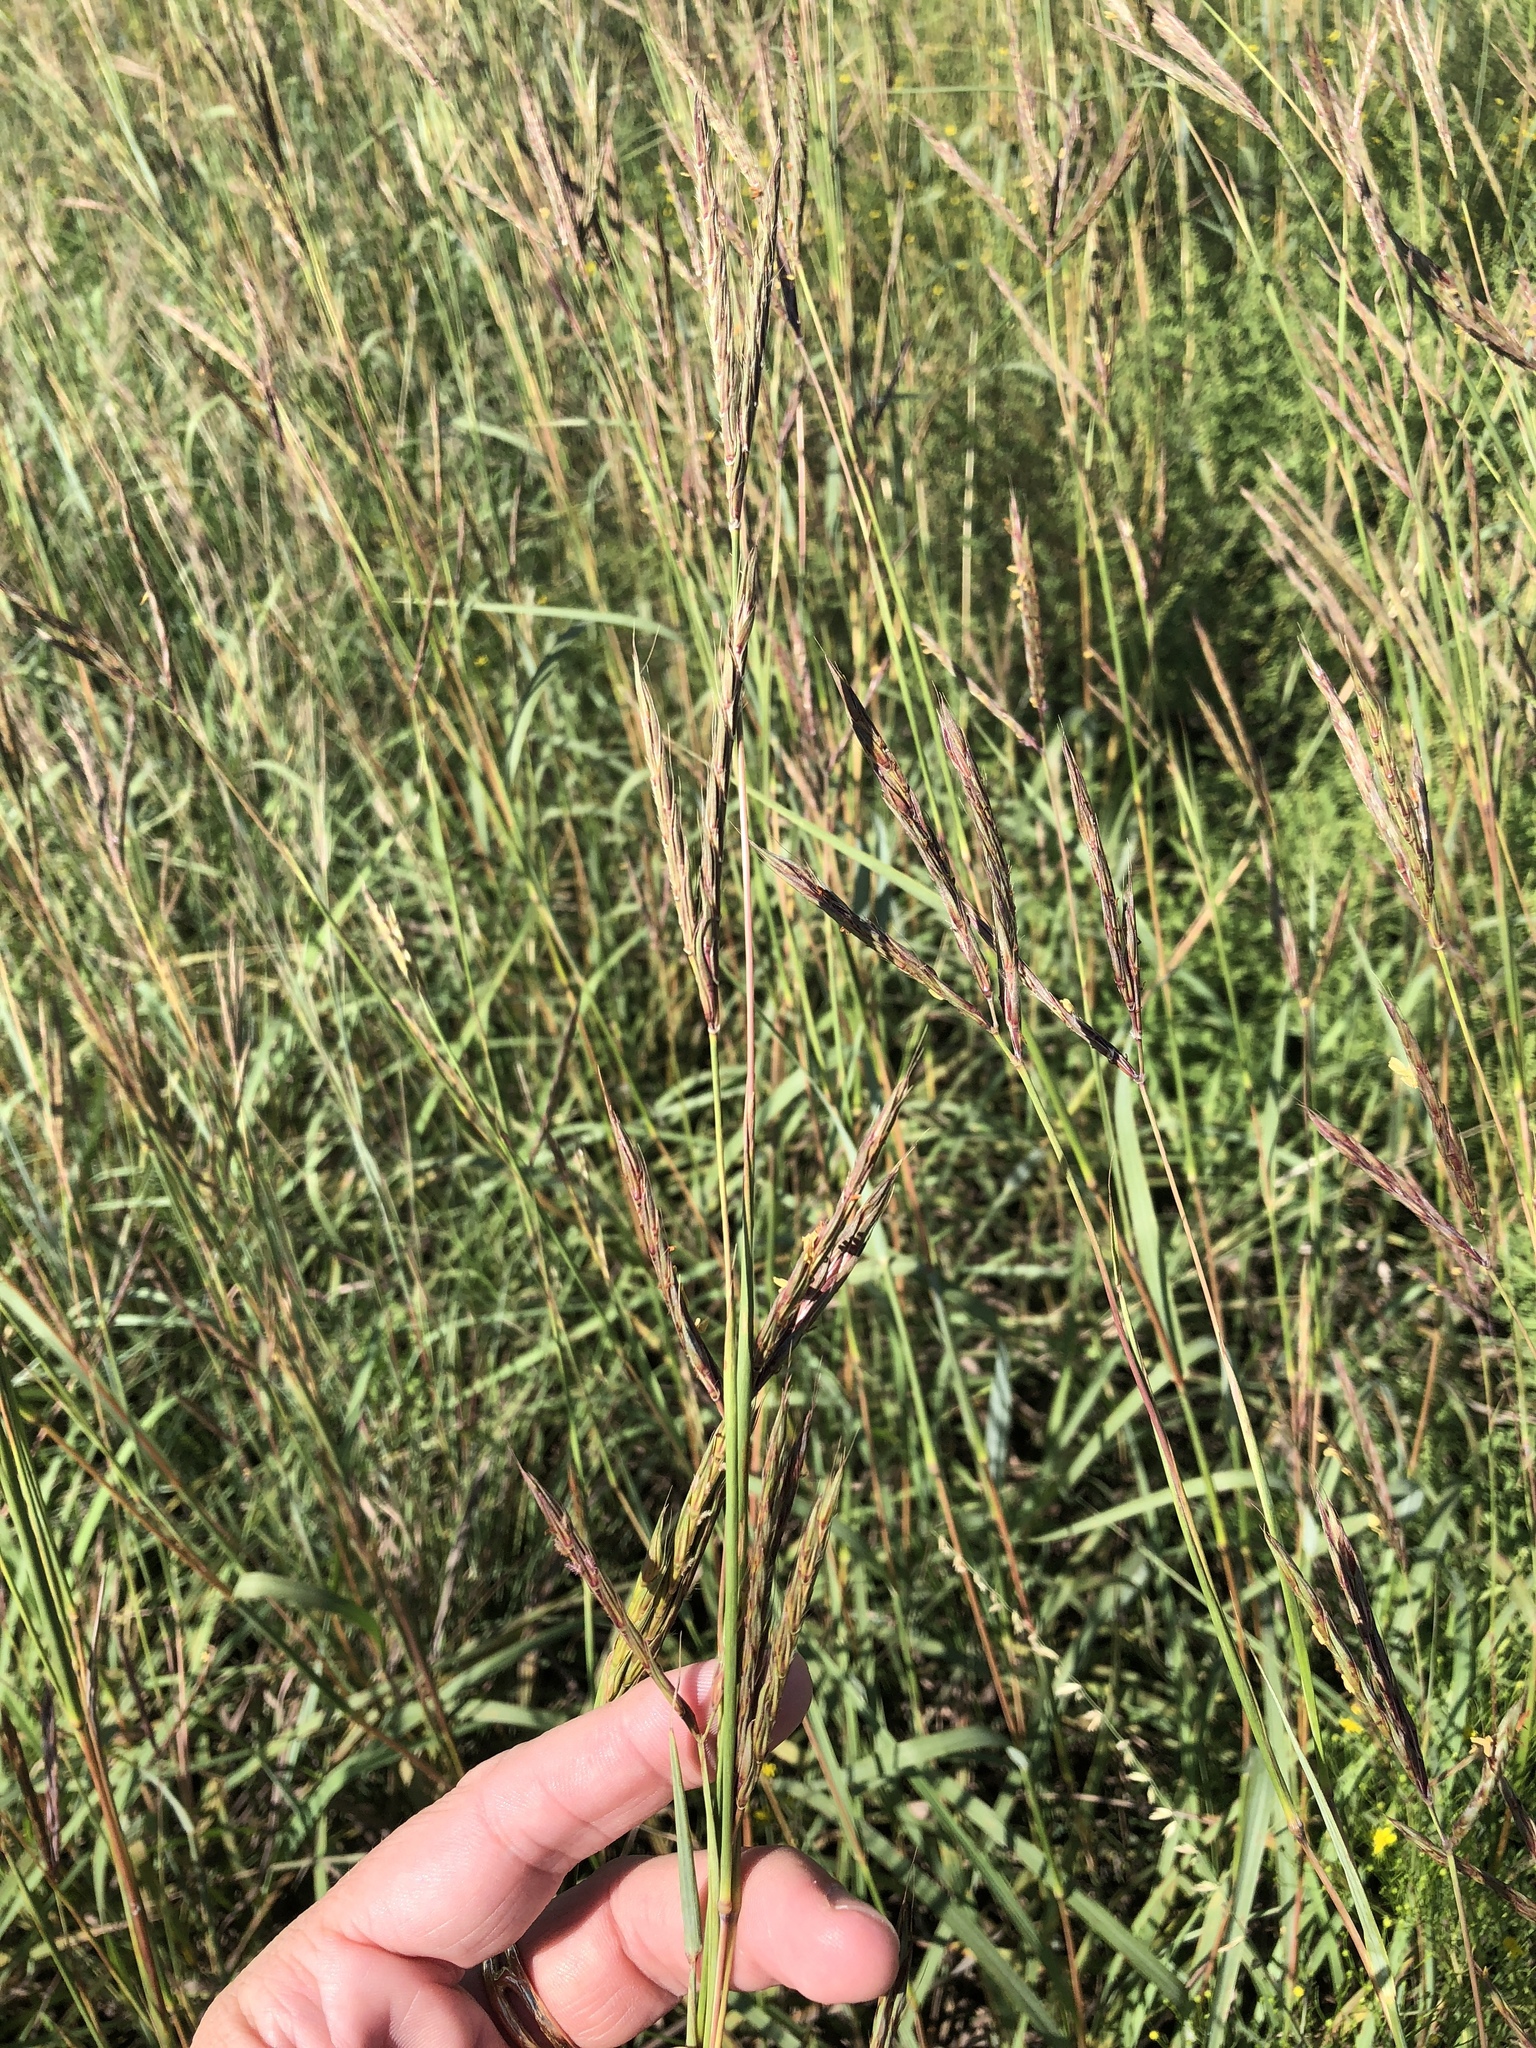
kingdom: Plantae
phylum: Tracheophyta
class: Liliopsida
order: Poales
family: Poaceae
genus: Andropogon
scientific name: Andropogon gerardi
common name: Big bluestem
